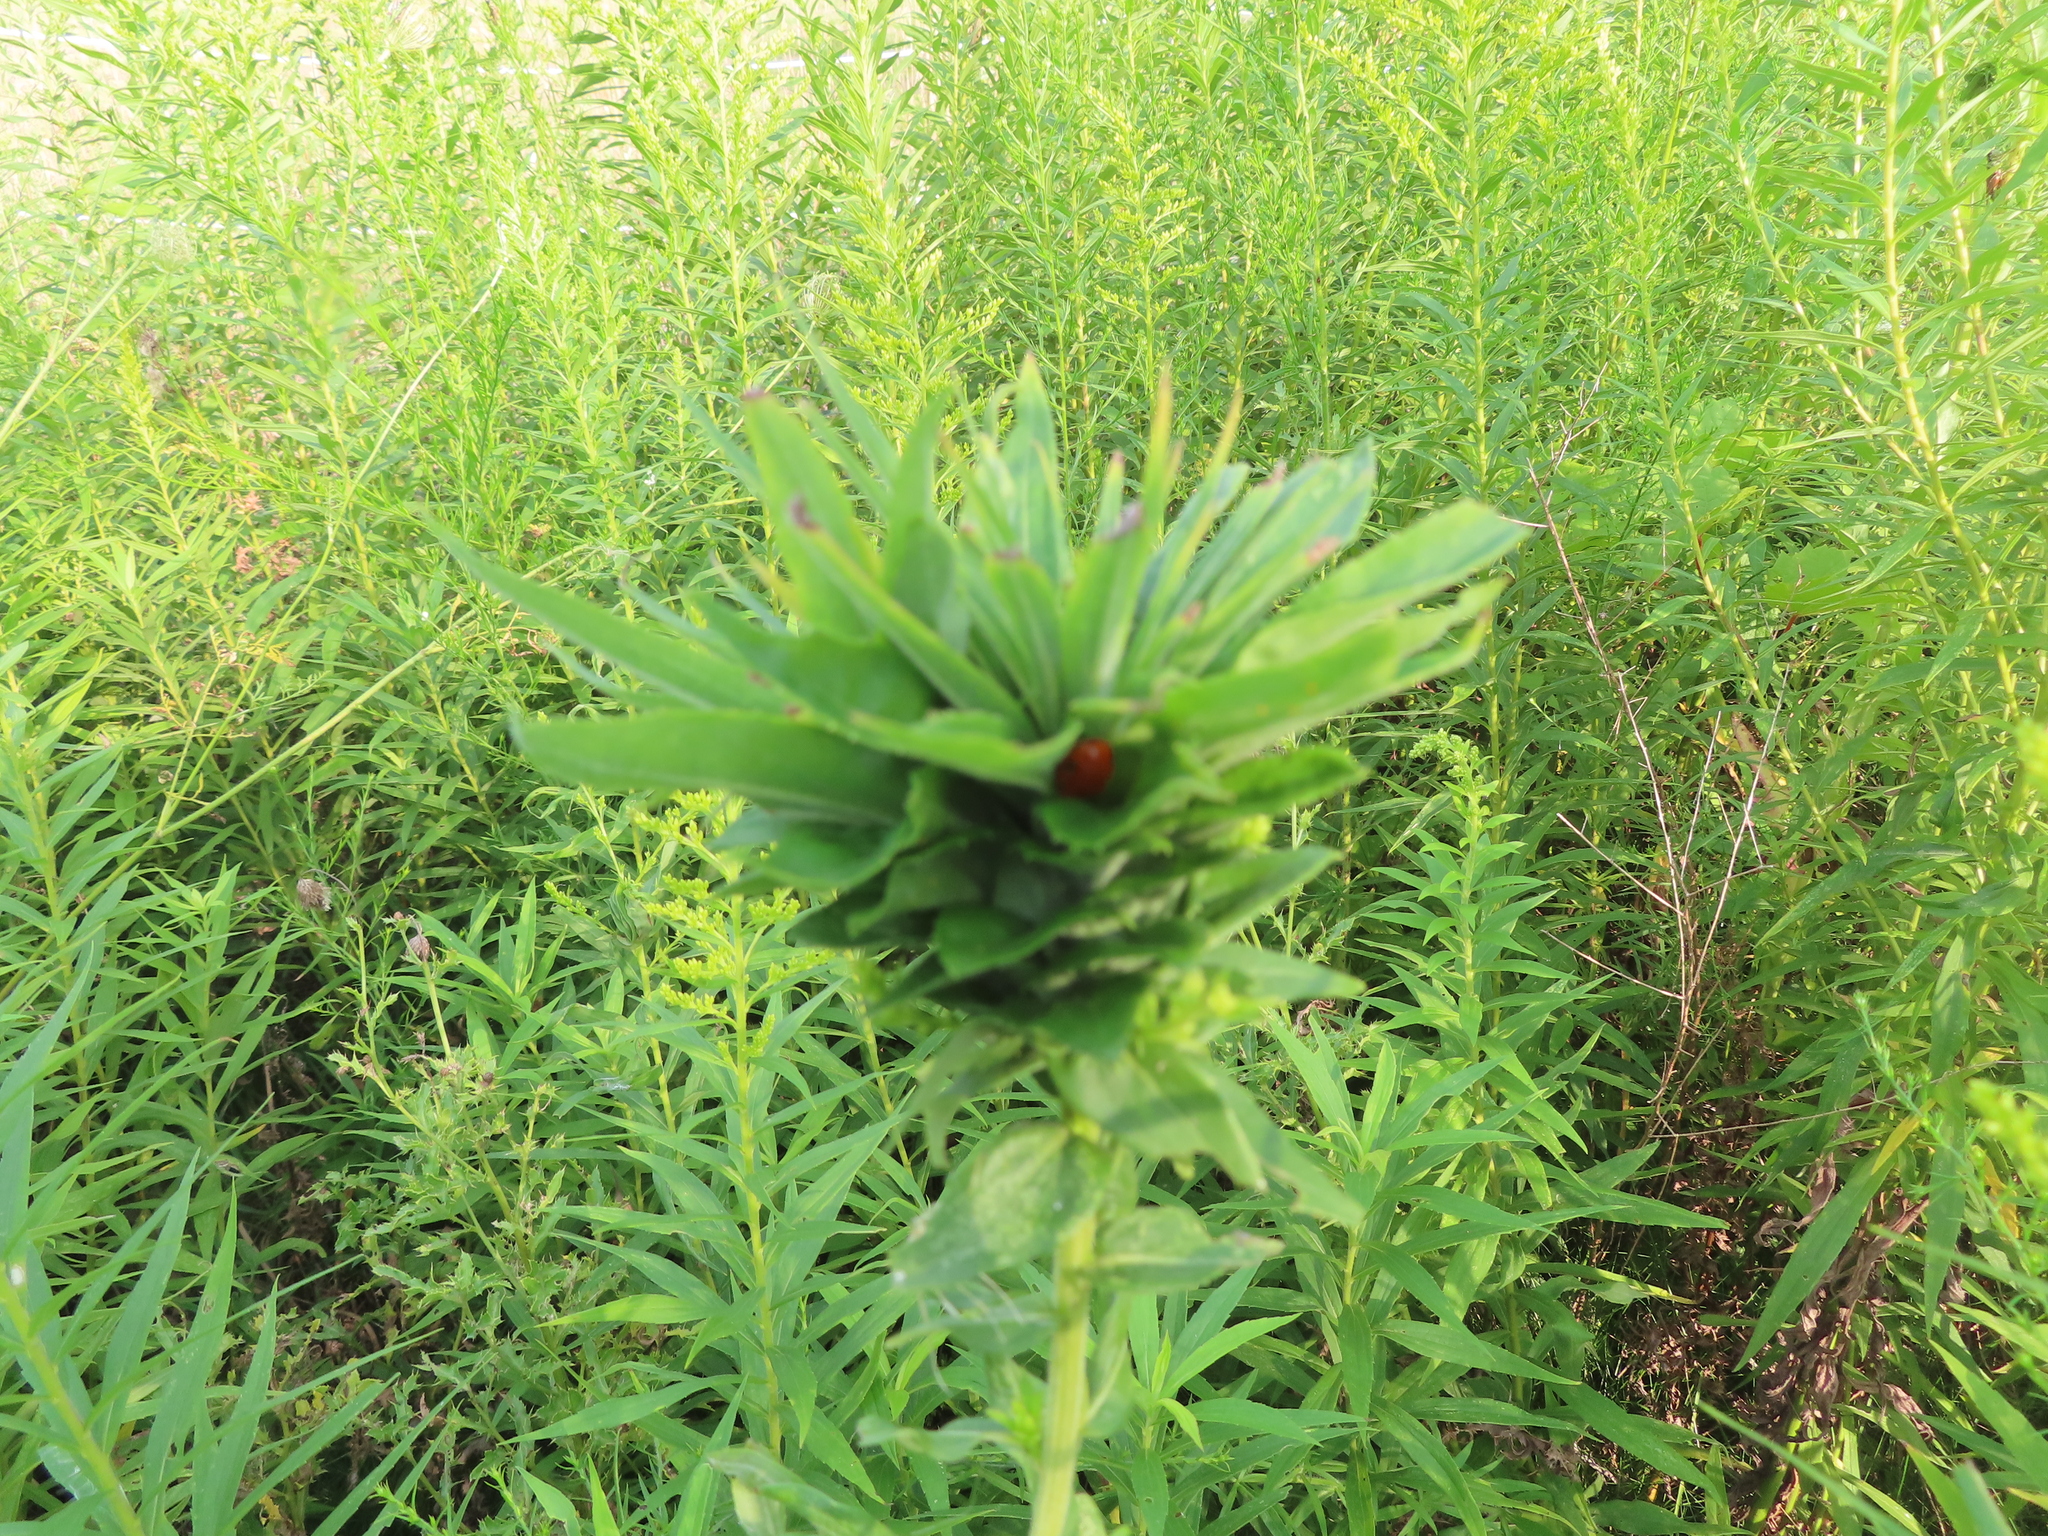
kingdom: Animalia
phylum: Arthropoda
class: Insecta
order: Diptera
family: Cecidomyiidae
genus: Rhopalomyia
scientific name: Rhopalomyia solidaginis
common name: Goldenrod bunch gall midge
